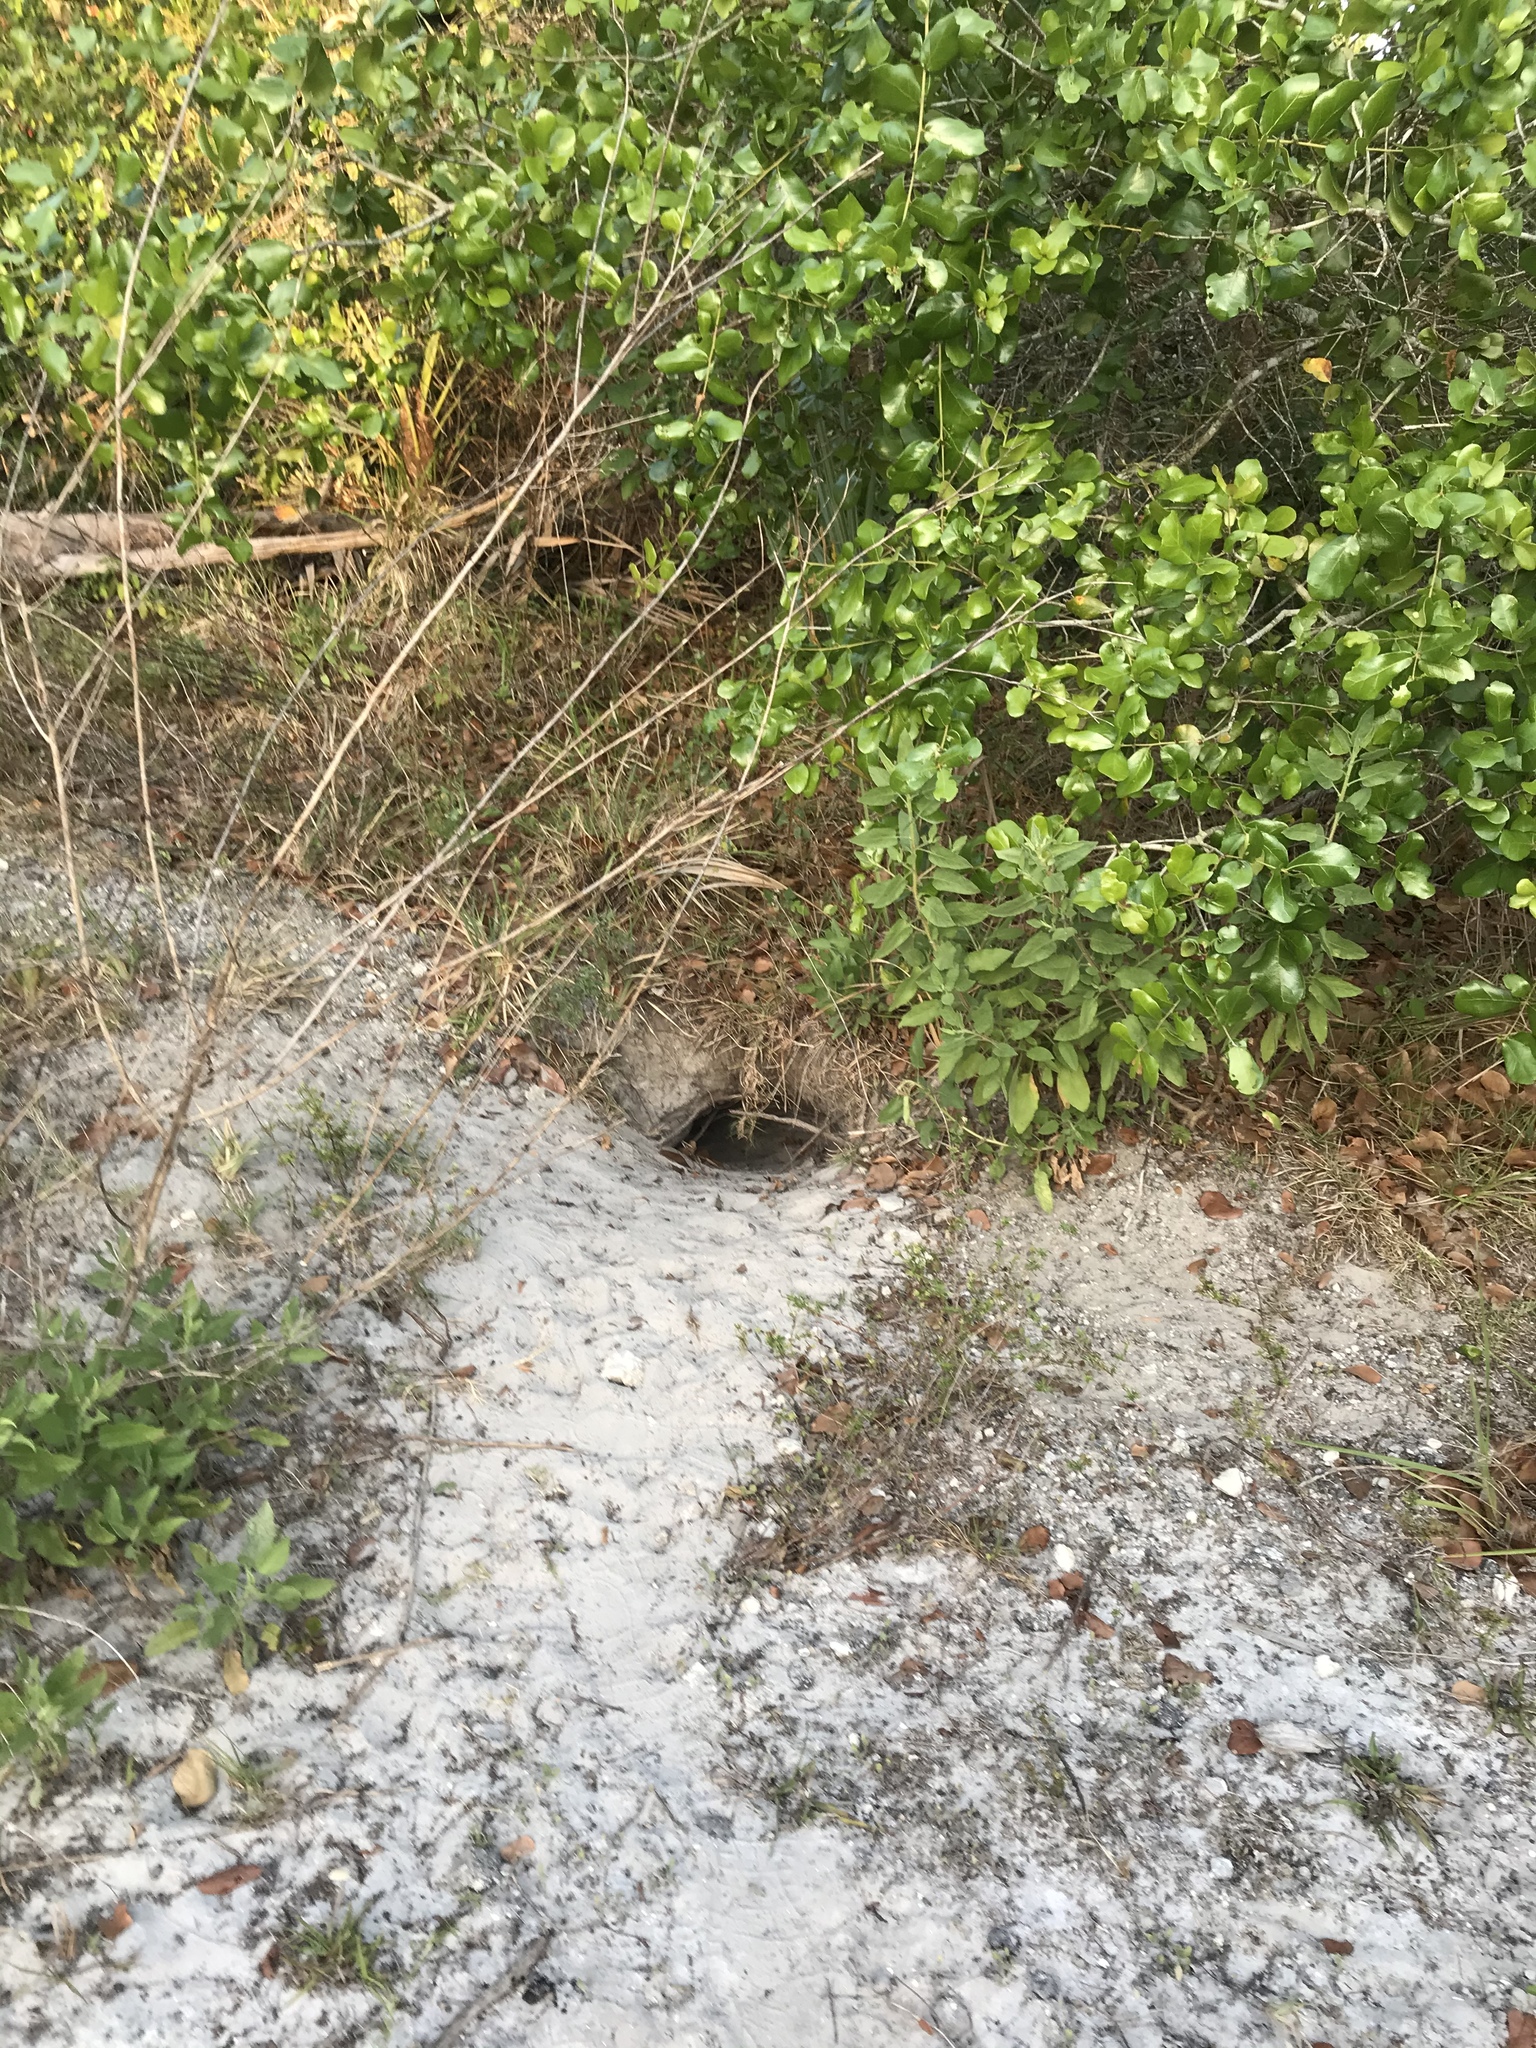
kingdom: Animalia
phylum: Chordata
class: Testudines
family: Testudinidae
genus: Gopherus
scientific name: Gopherus polyphemus
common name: Florida gopher tortoise
